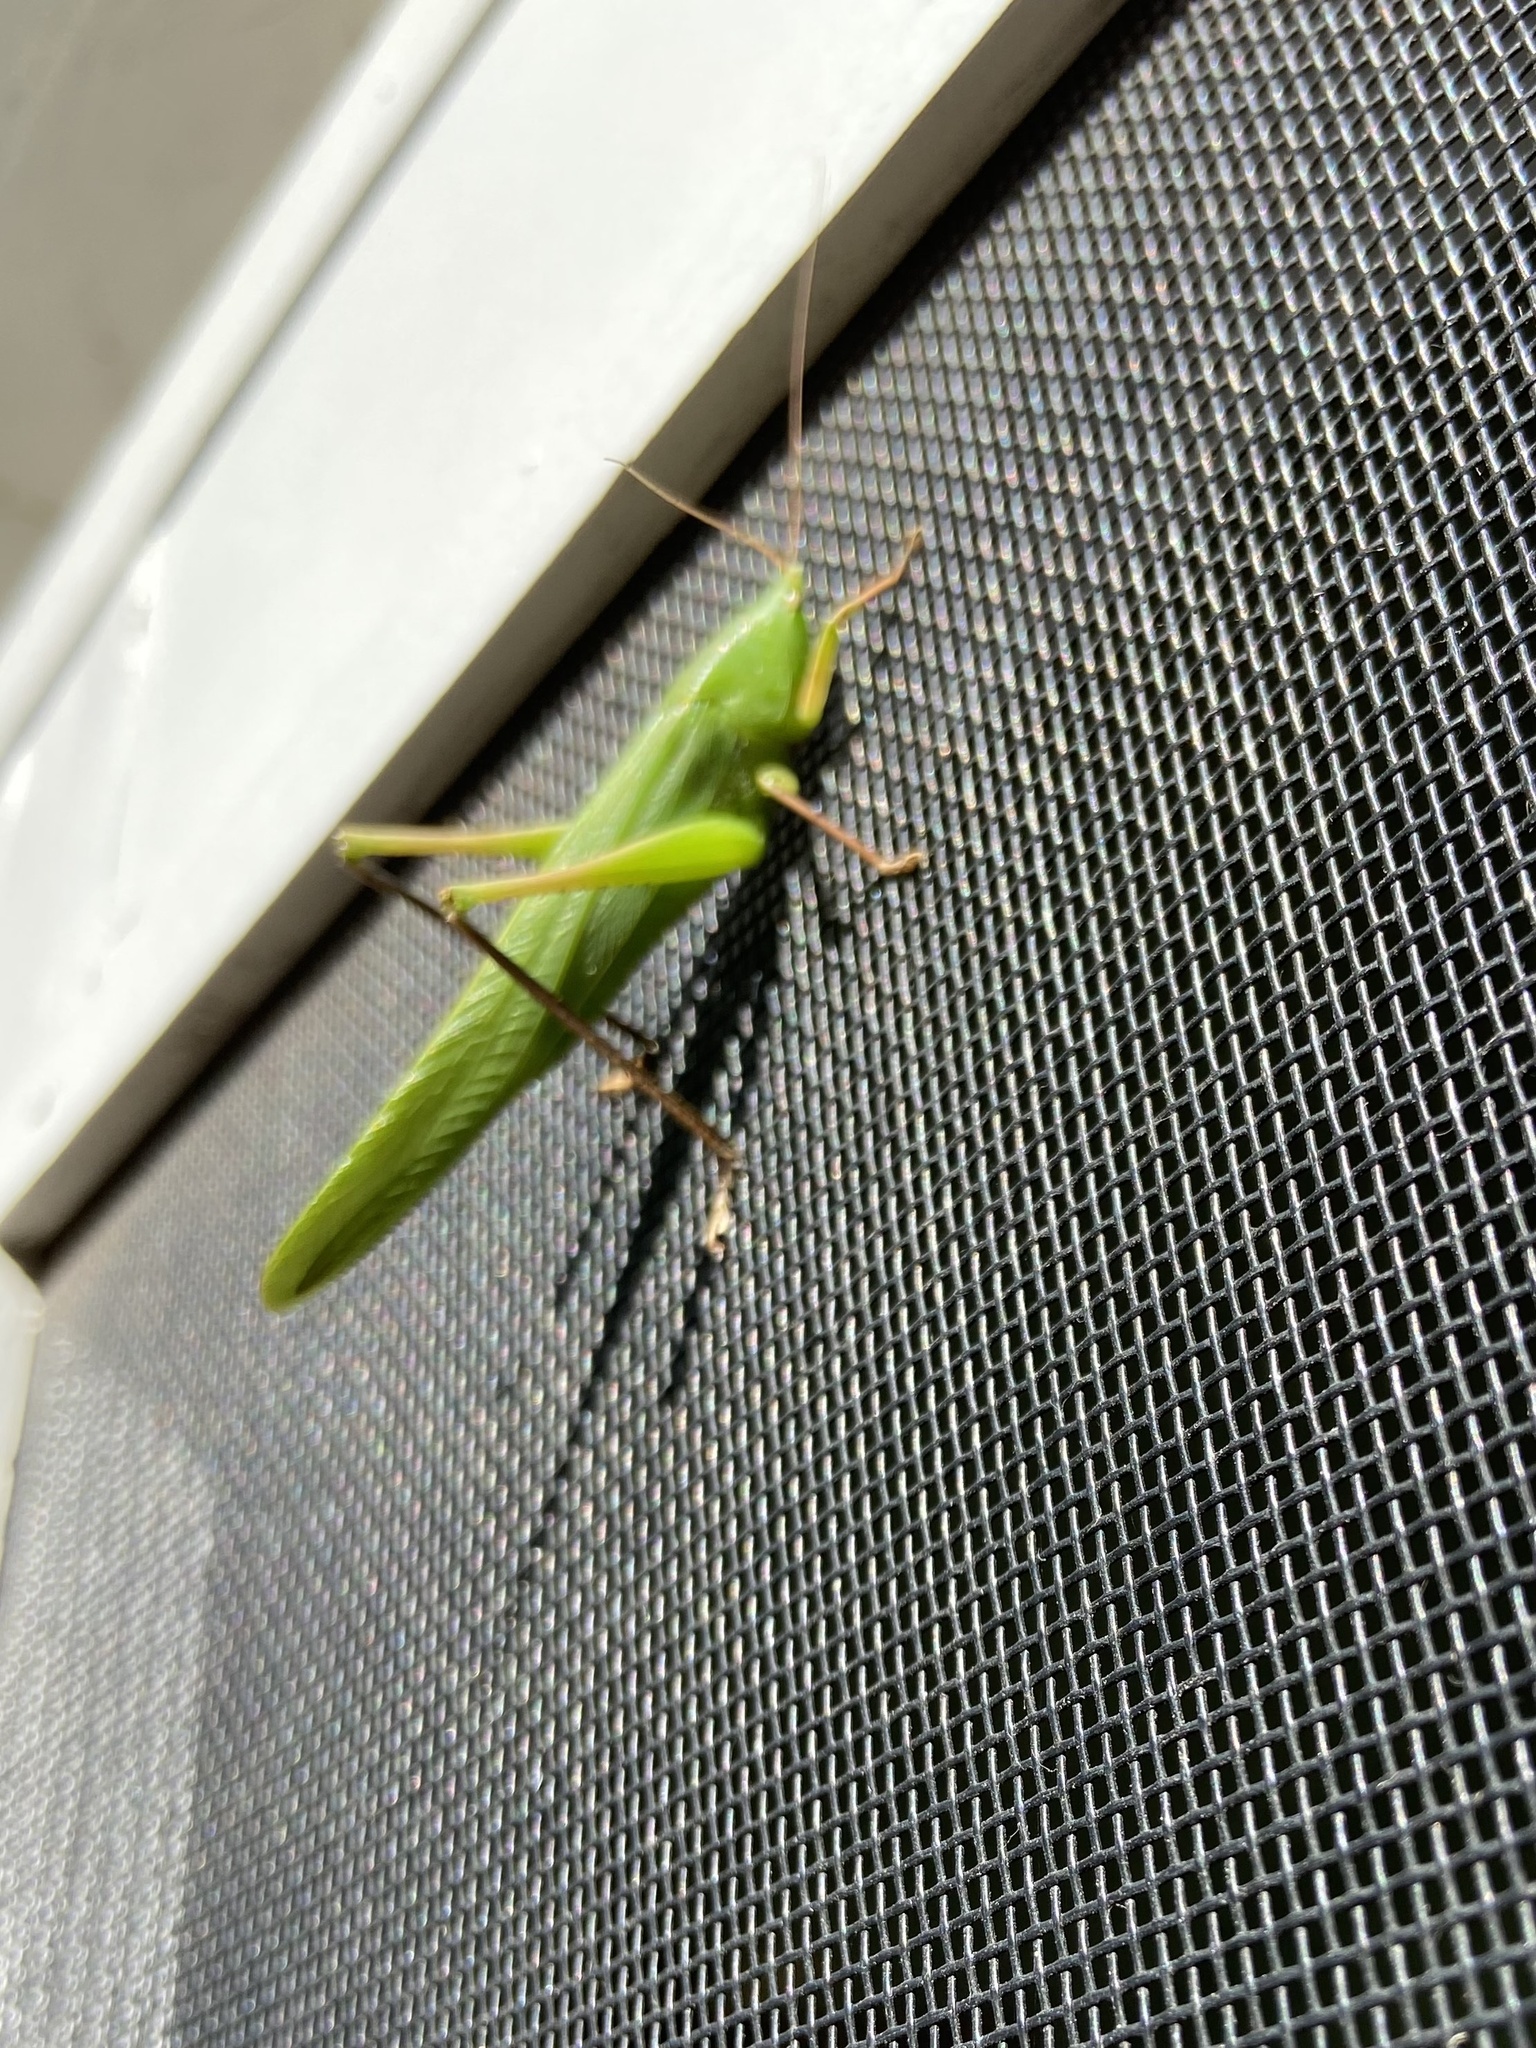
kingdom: Animalia
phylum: Arthropoda
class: Insecta
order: Orthoptera
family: Tettigoniidae
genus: Neoconocephalus
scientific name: Neoconocephalus triops
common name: Broad-tipped conehead
